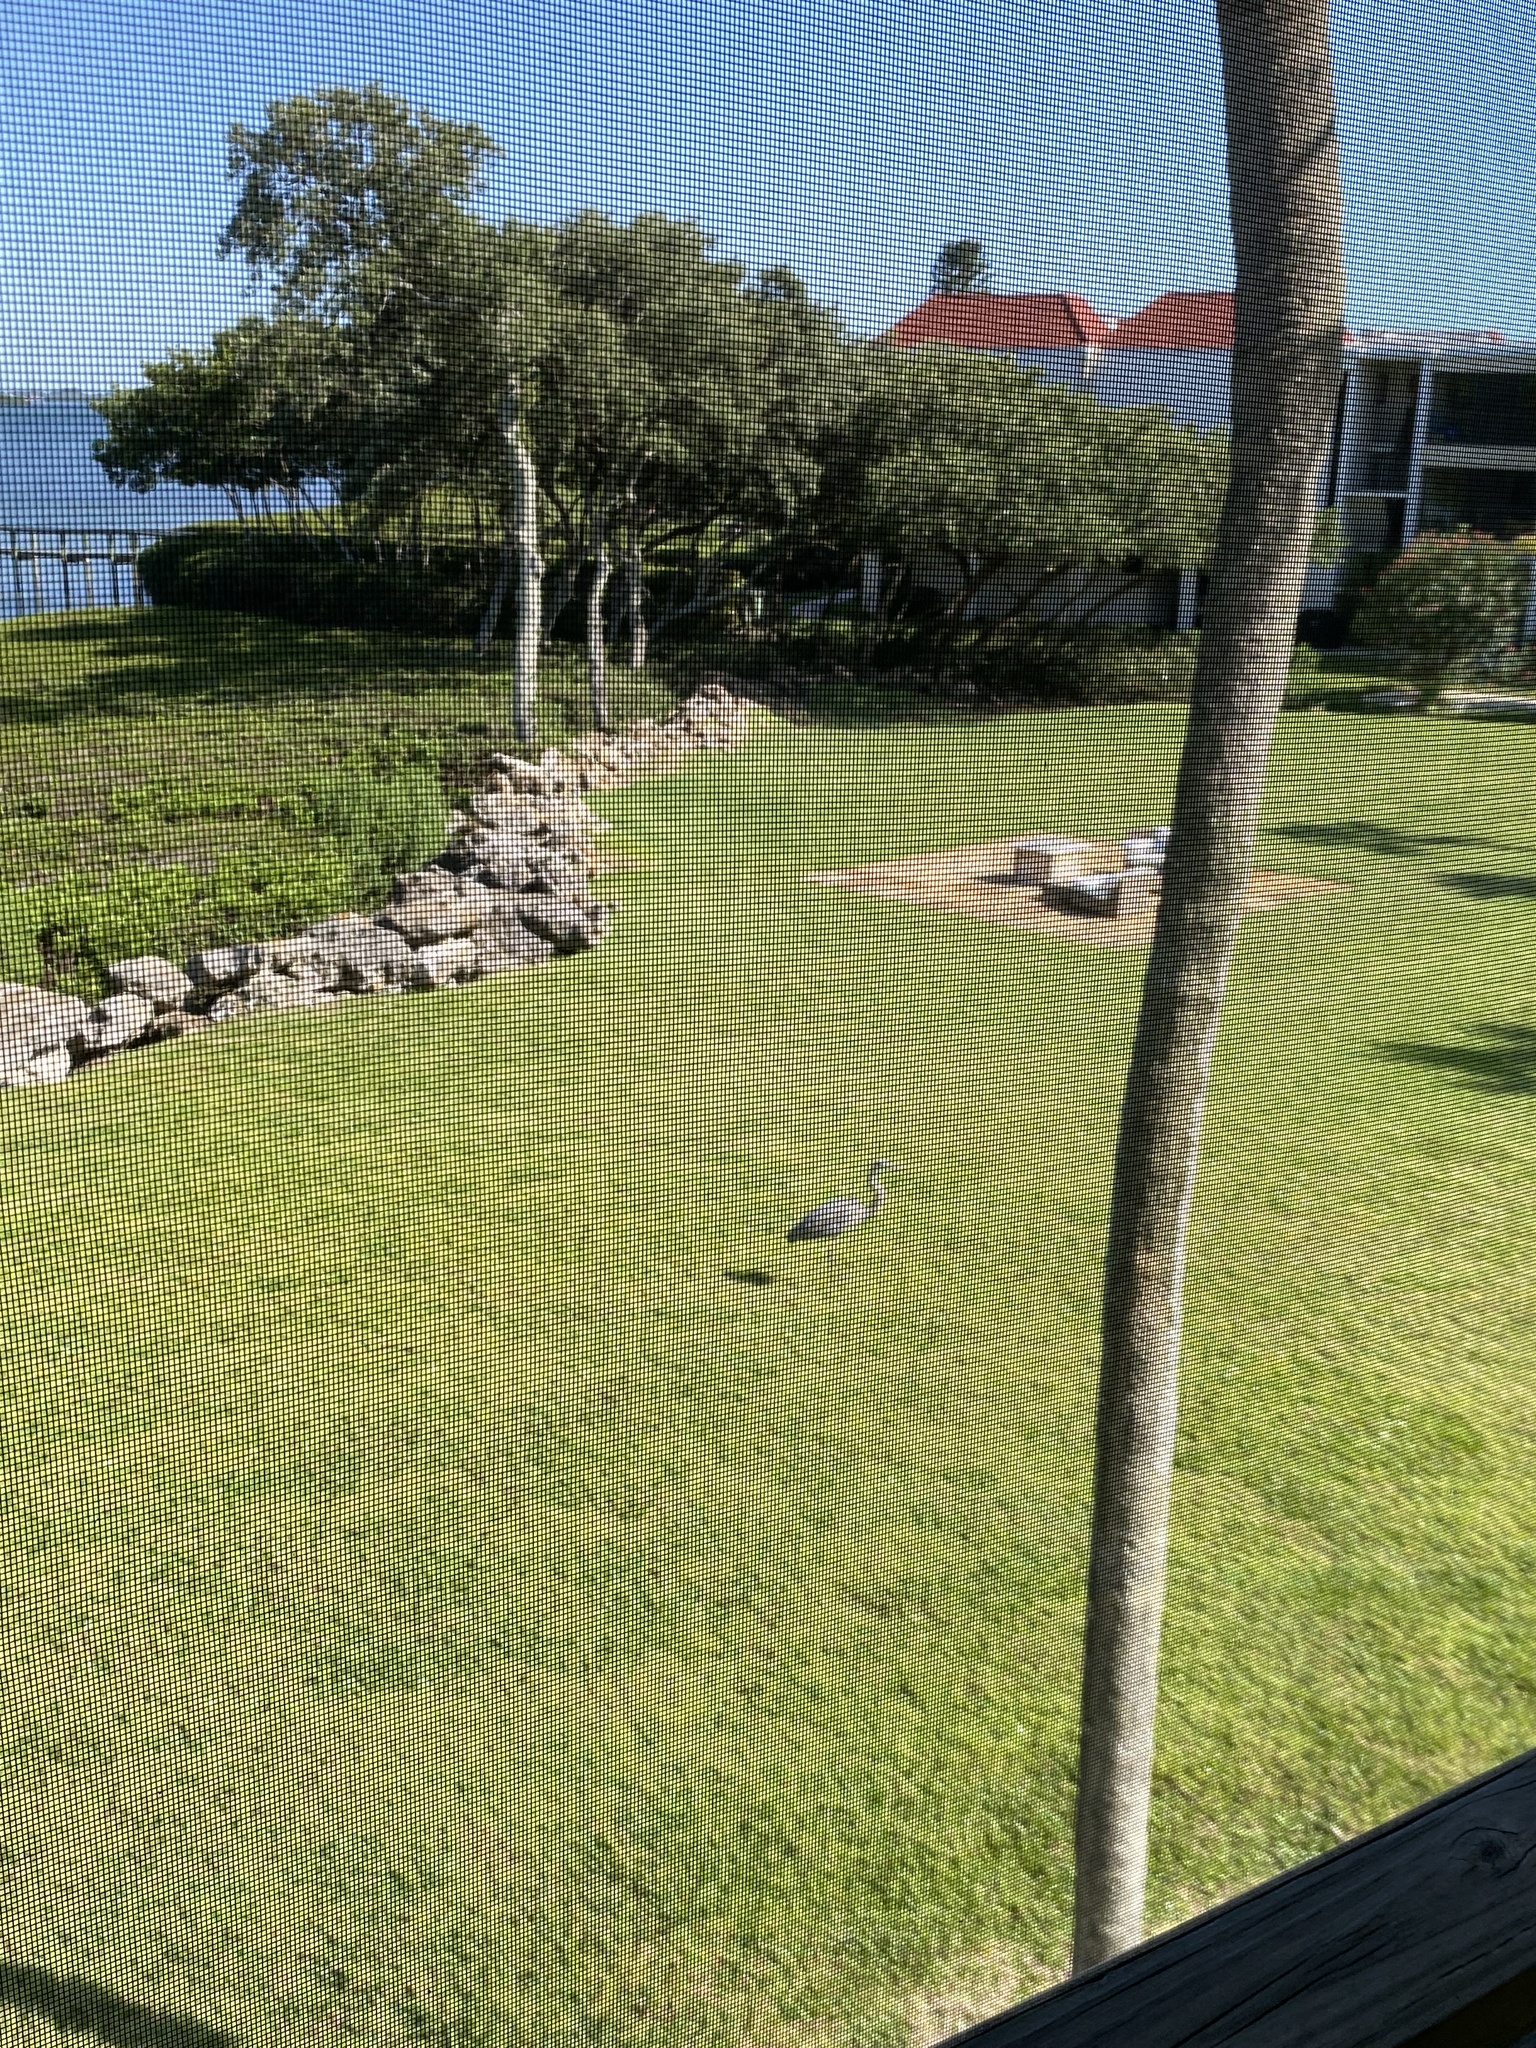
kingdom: Animalia
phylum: Chordata
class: Aves
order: Pelecaniformes
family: Ardeidae
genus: Ardea
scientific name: Ardea herodias
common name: Great blue heron
